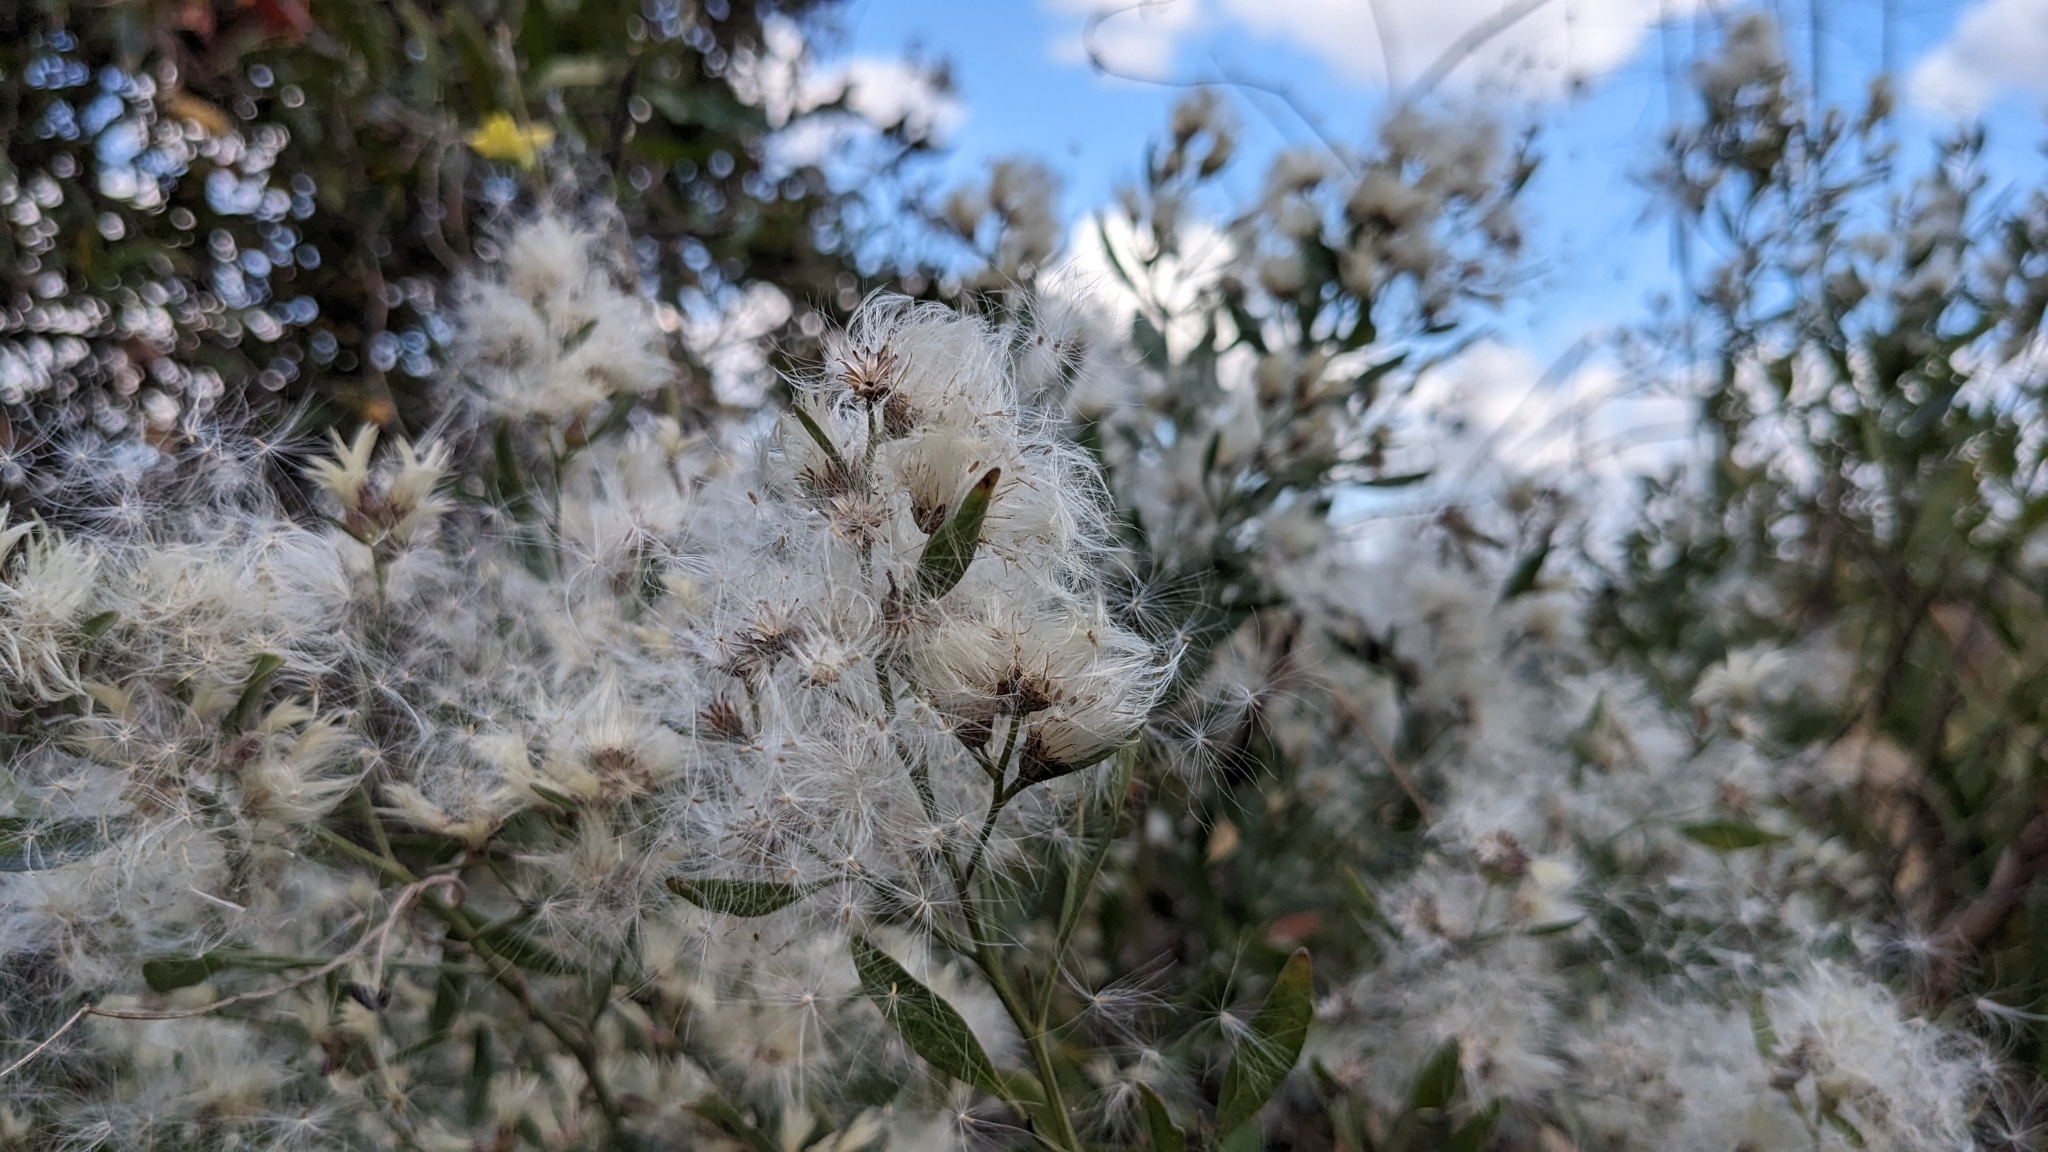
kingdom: Plantae
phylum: Tracheophyta
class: Magnoliopsida
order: Asterales
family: Asteraceae
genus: Baccharis
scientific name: Baccharis halimifolia
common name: Eastern baccharis
